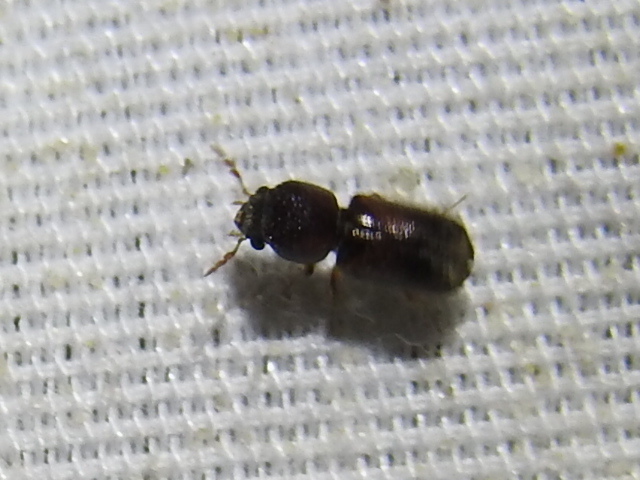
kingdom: Animalia
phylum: Arthropoda
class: Insecta
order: Coleoptera
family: Bostrichidae
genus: Xylobiops
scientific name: Xylobiops basilaris
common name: Red-shouldered bostrichid
